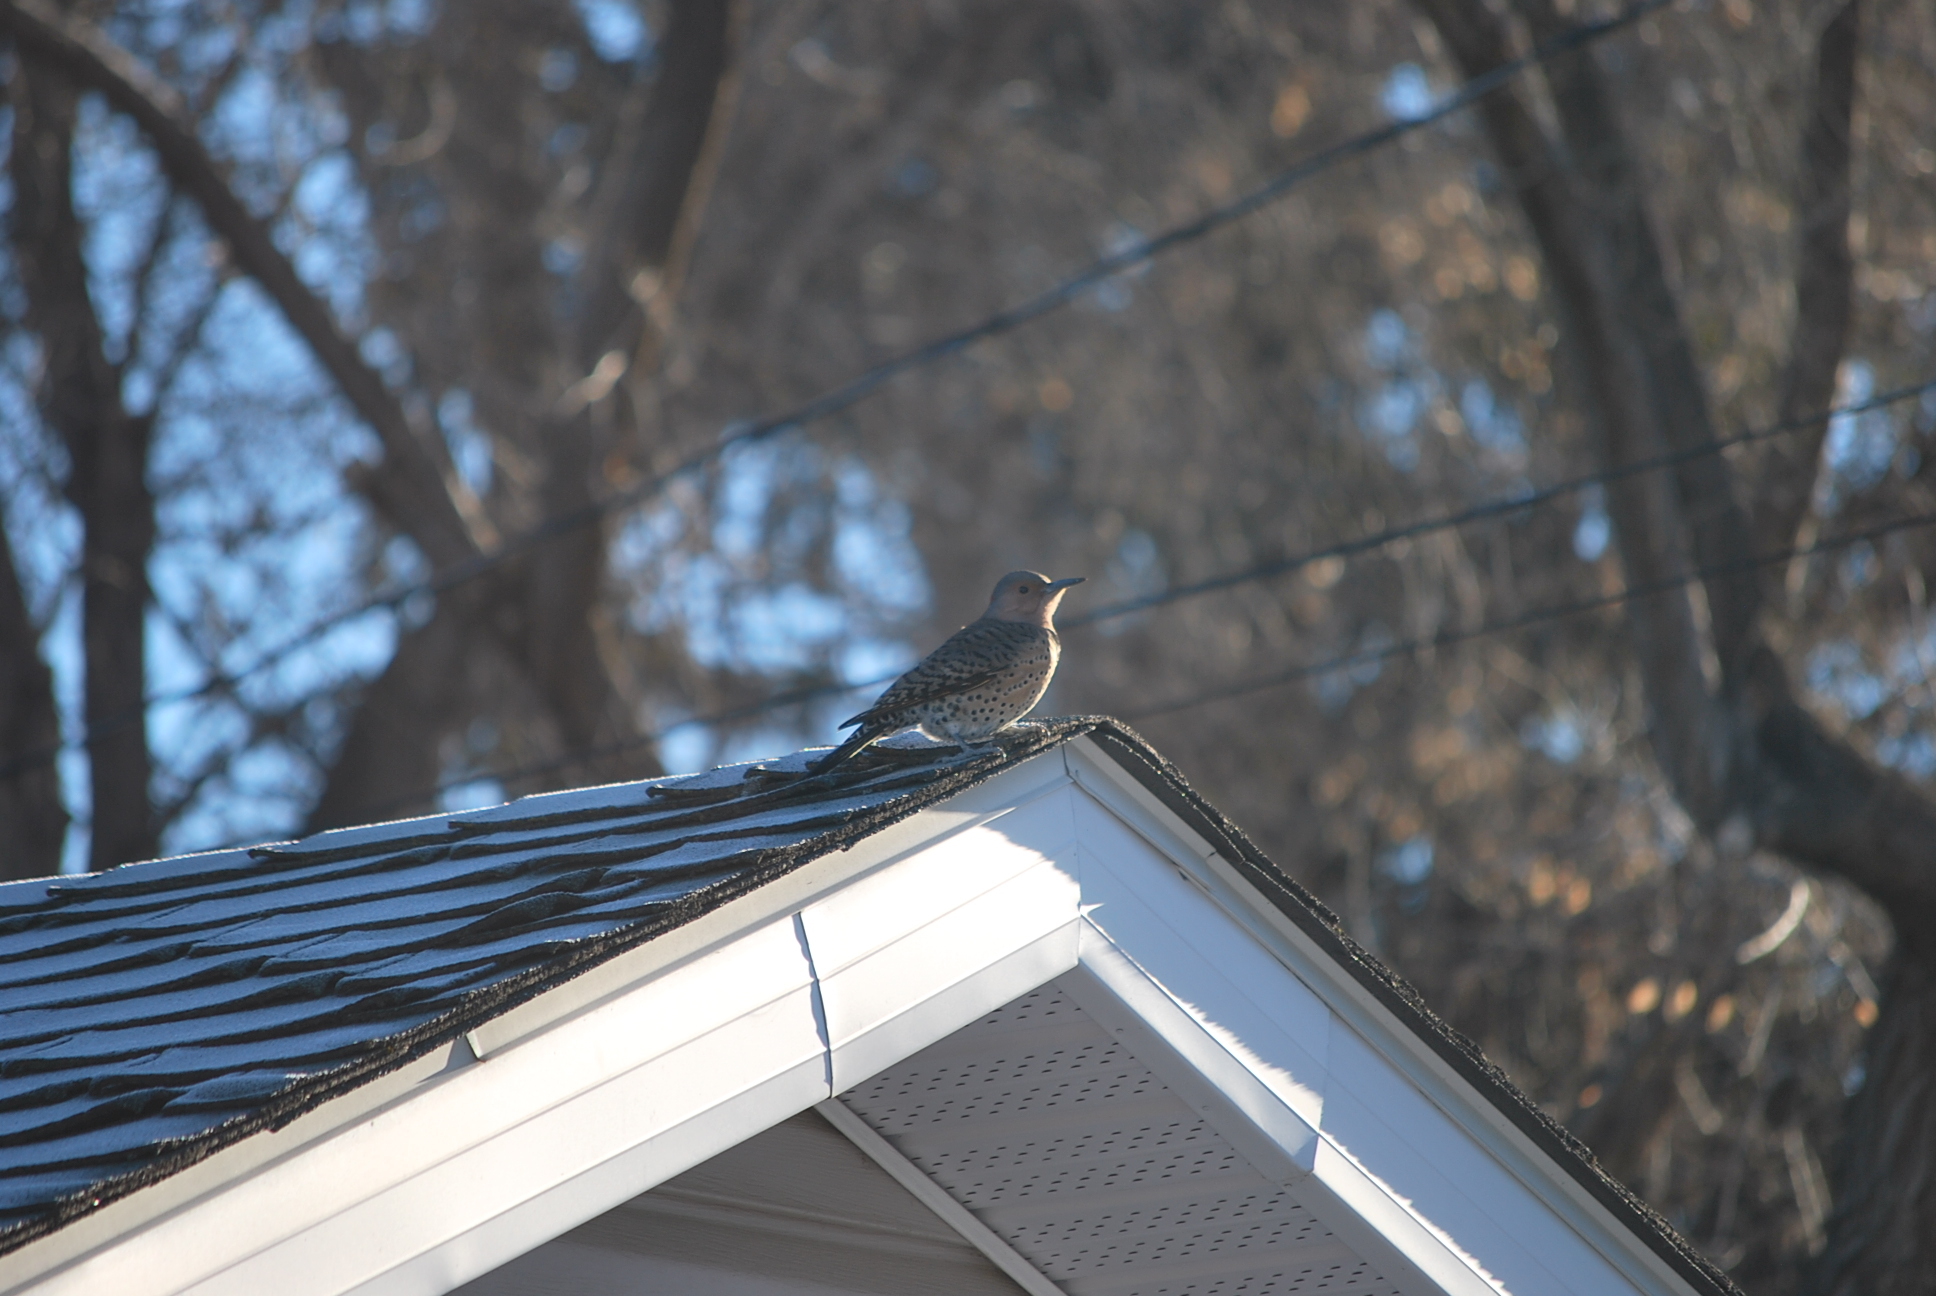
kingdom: Animalia
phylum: Chordata
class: Aves
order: Piciformes
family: Picidae
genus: Colaptes
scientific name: Colaptes auratus
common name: Northern flicker
